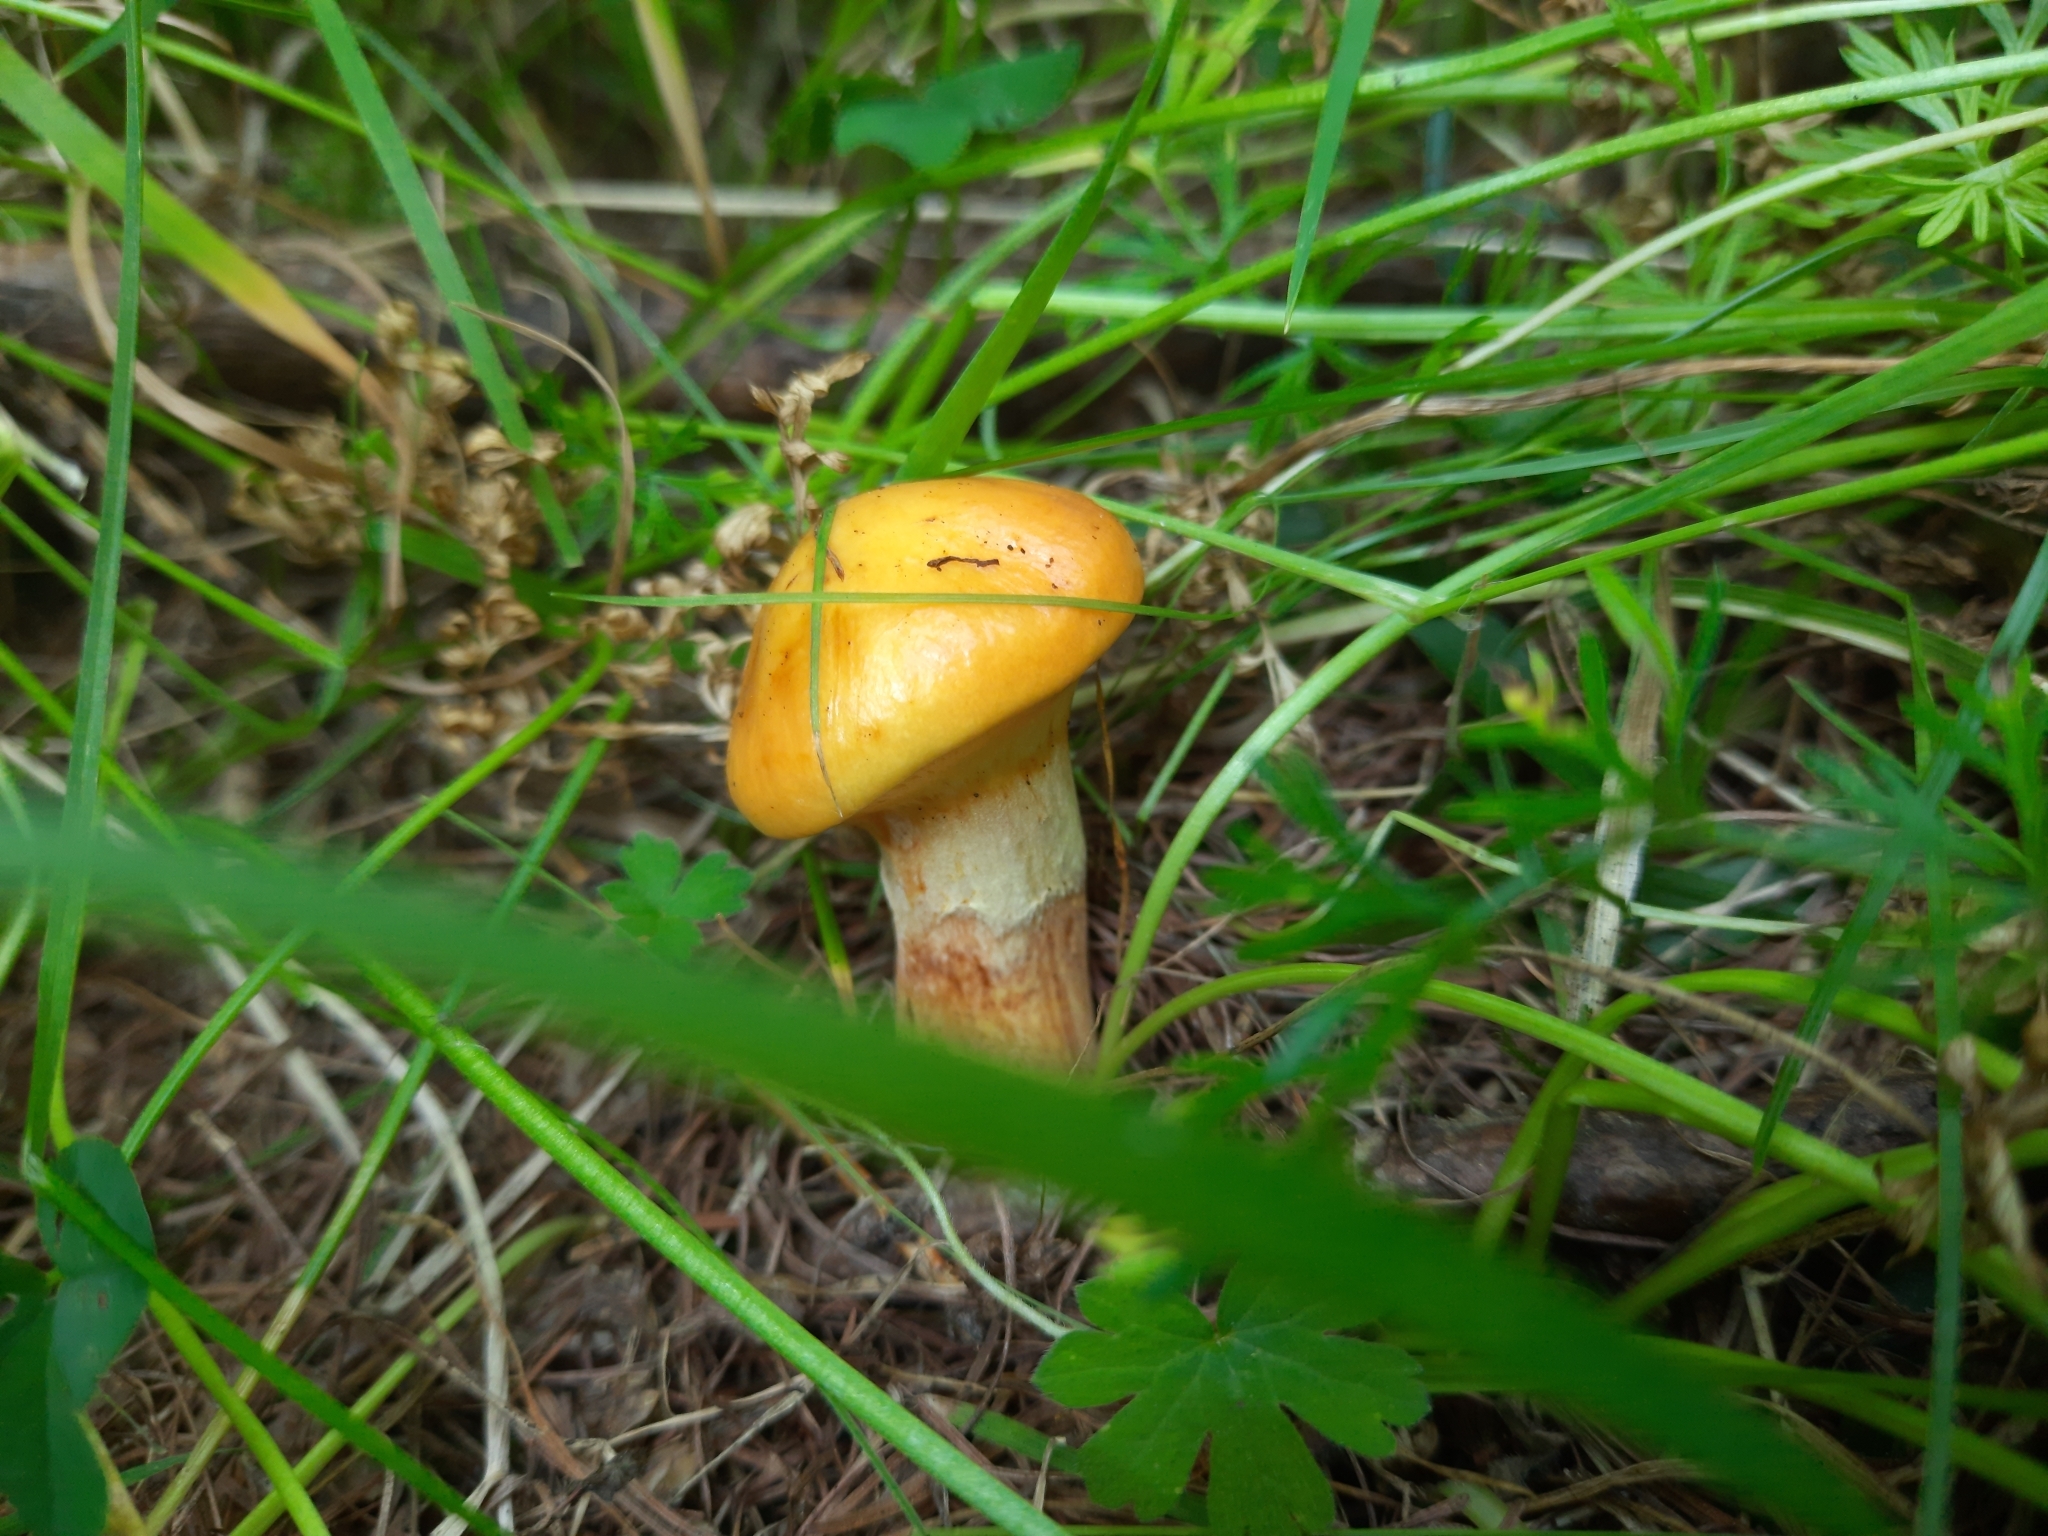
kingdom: Fungi
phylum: Basidiomycota
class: Agaricomycetes
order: Boletales
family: Suillaceae
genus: Suillus
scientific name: Suillus grevillei
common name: Larch bolete
